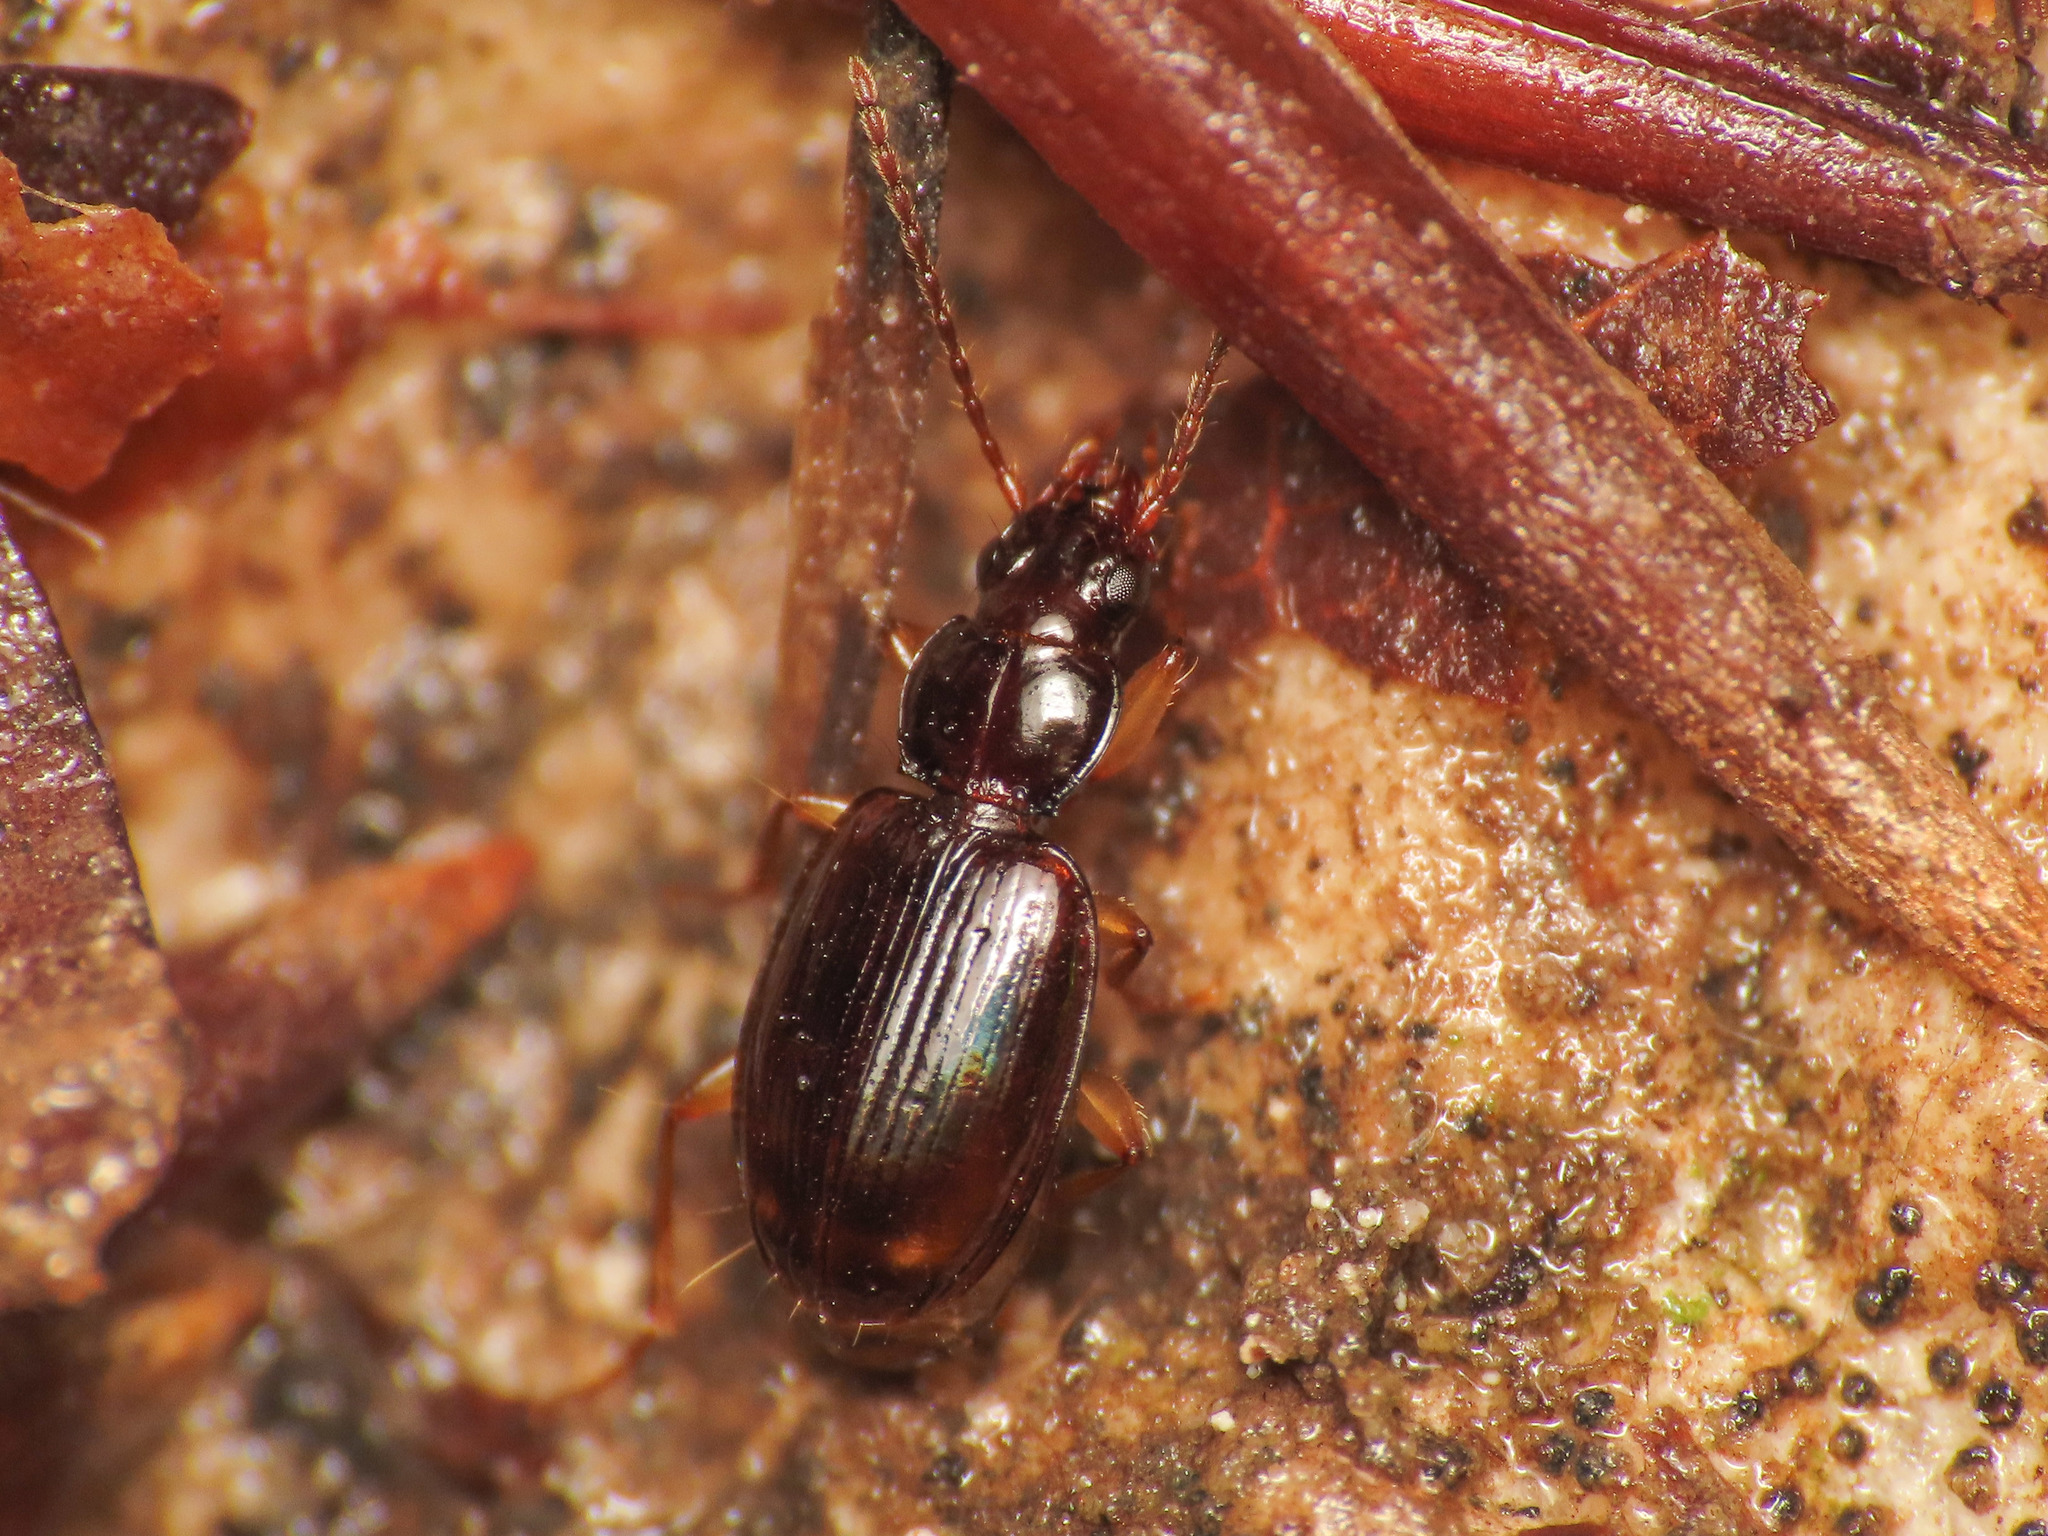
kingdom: Animalia
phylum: Arthropoda
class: Insecta
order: Coleoptera
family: Carabidae
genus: Trechus
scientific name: Trechus binotatus
